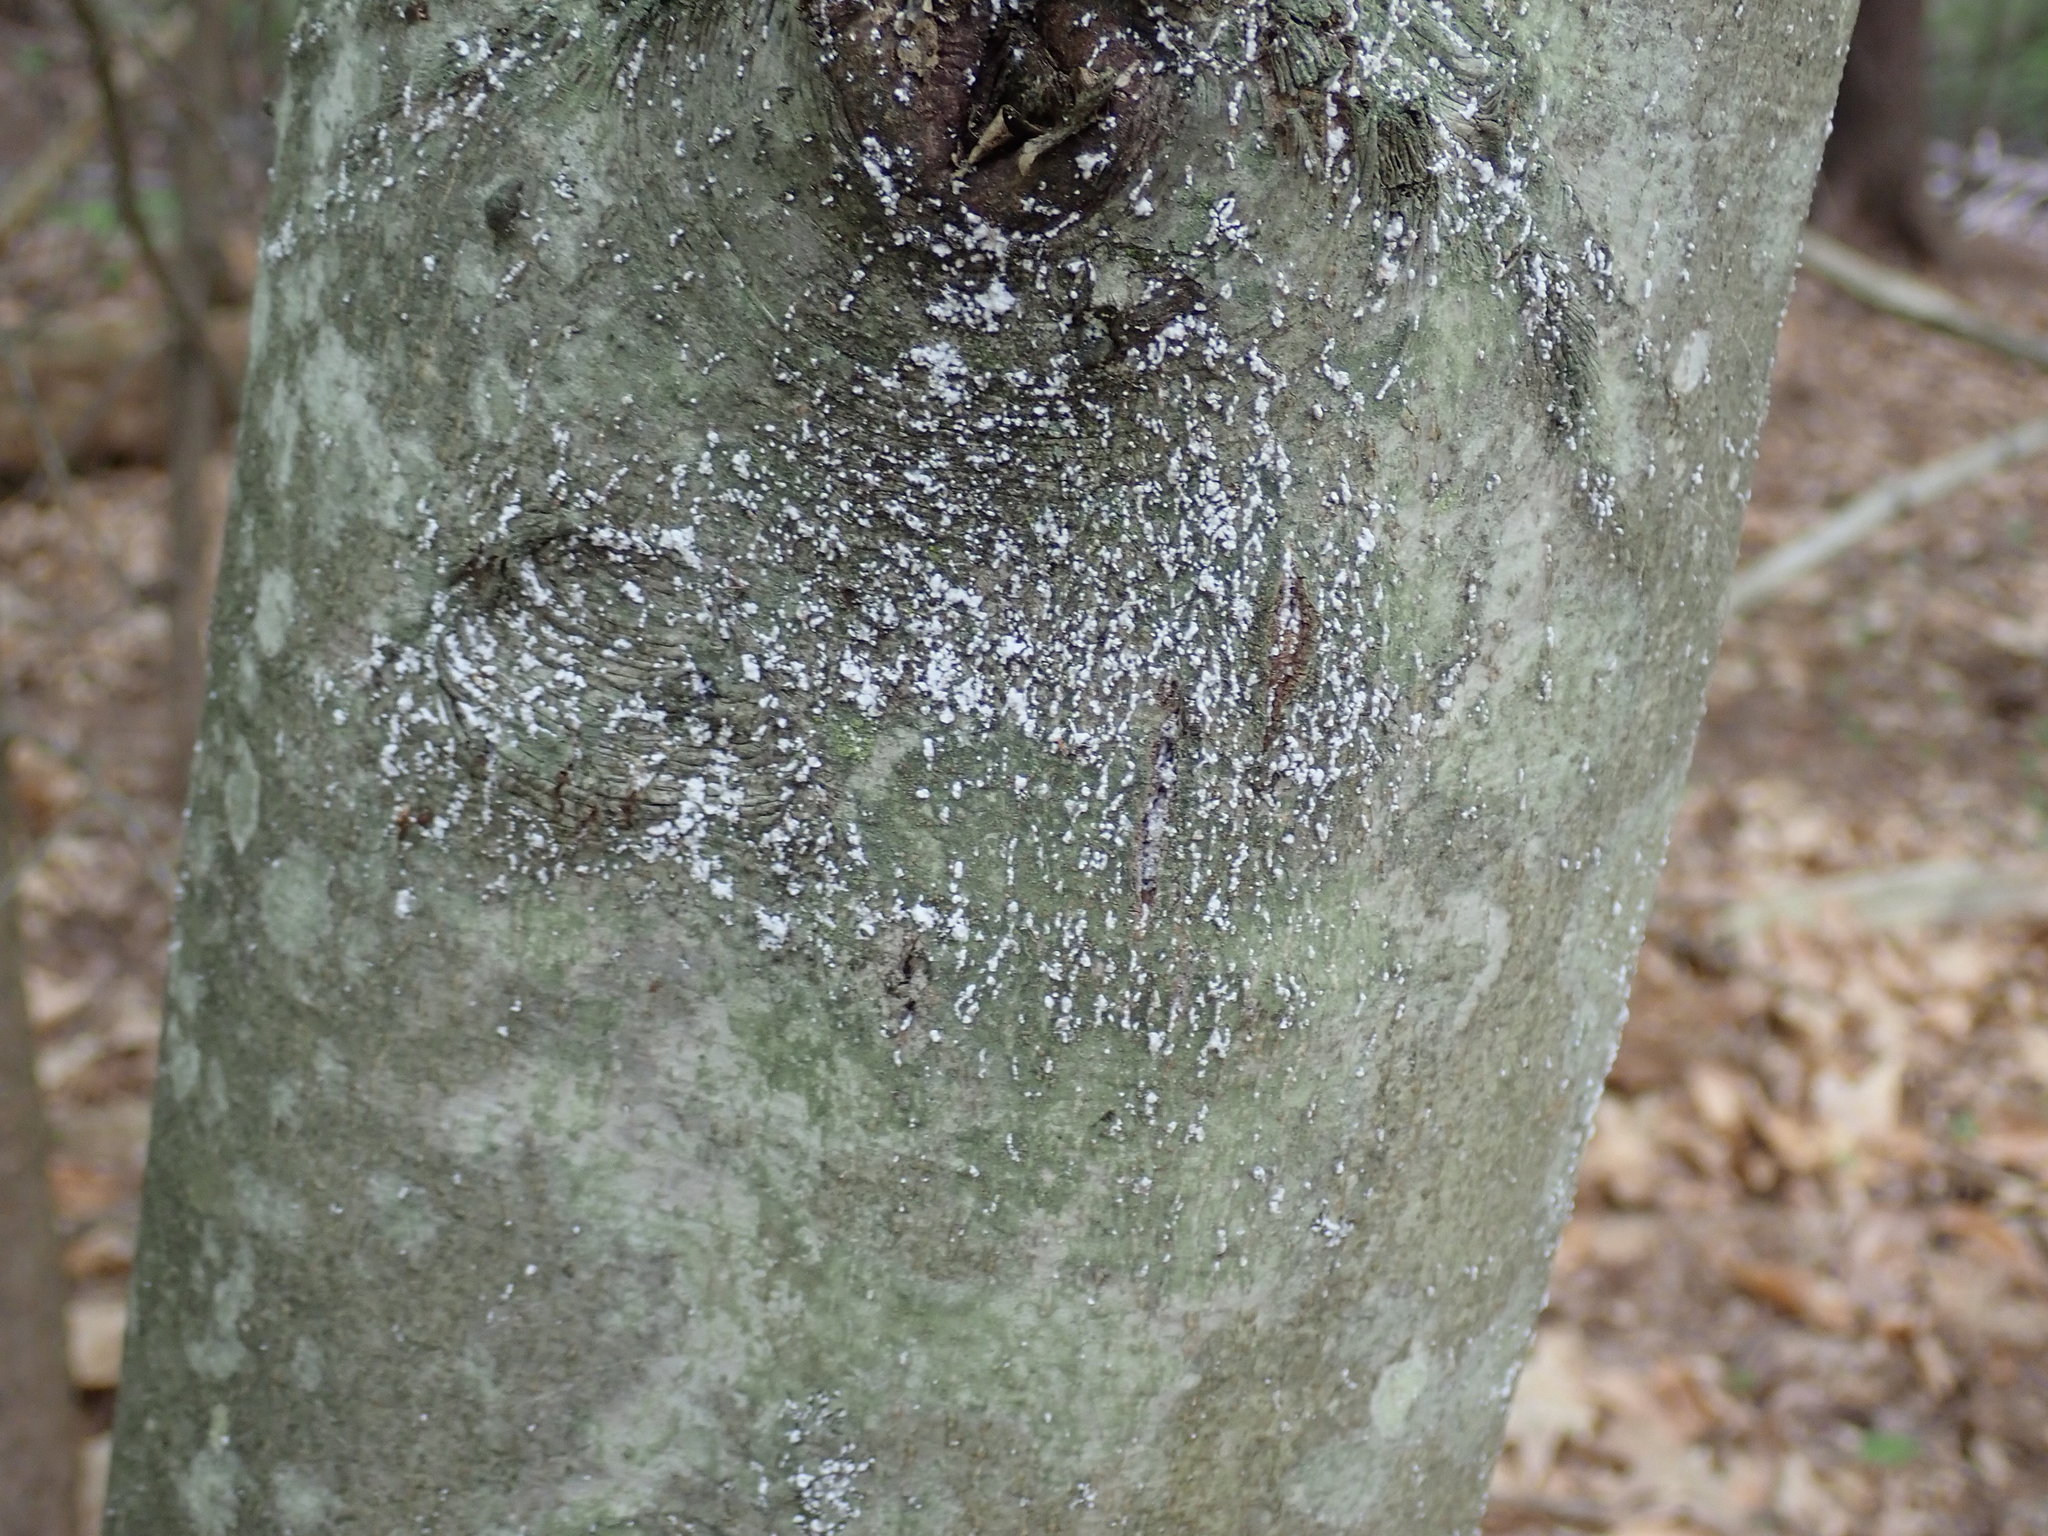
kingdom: Animalia
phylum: Arthropoda
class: Insecta
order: Hemiptera
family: Eriococcidae
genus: Cryptococcus
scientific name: Cryptococcus fagisuga
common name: Beech scale
